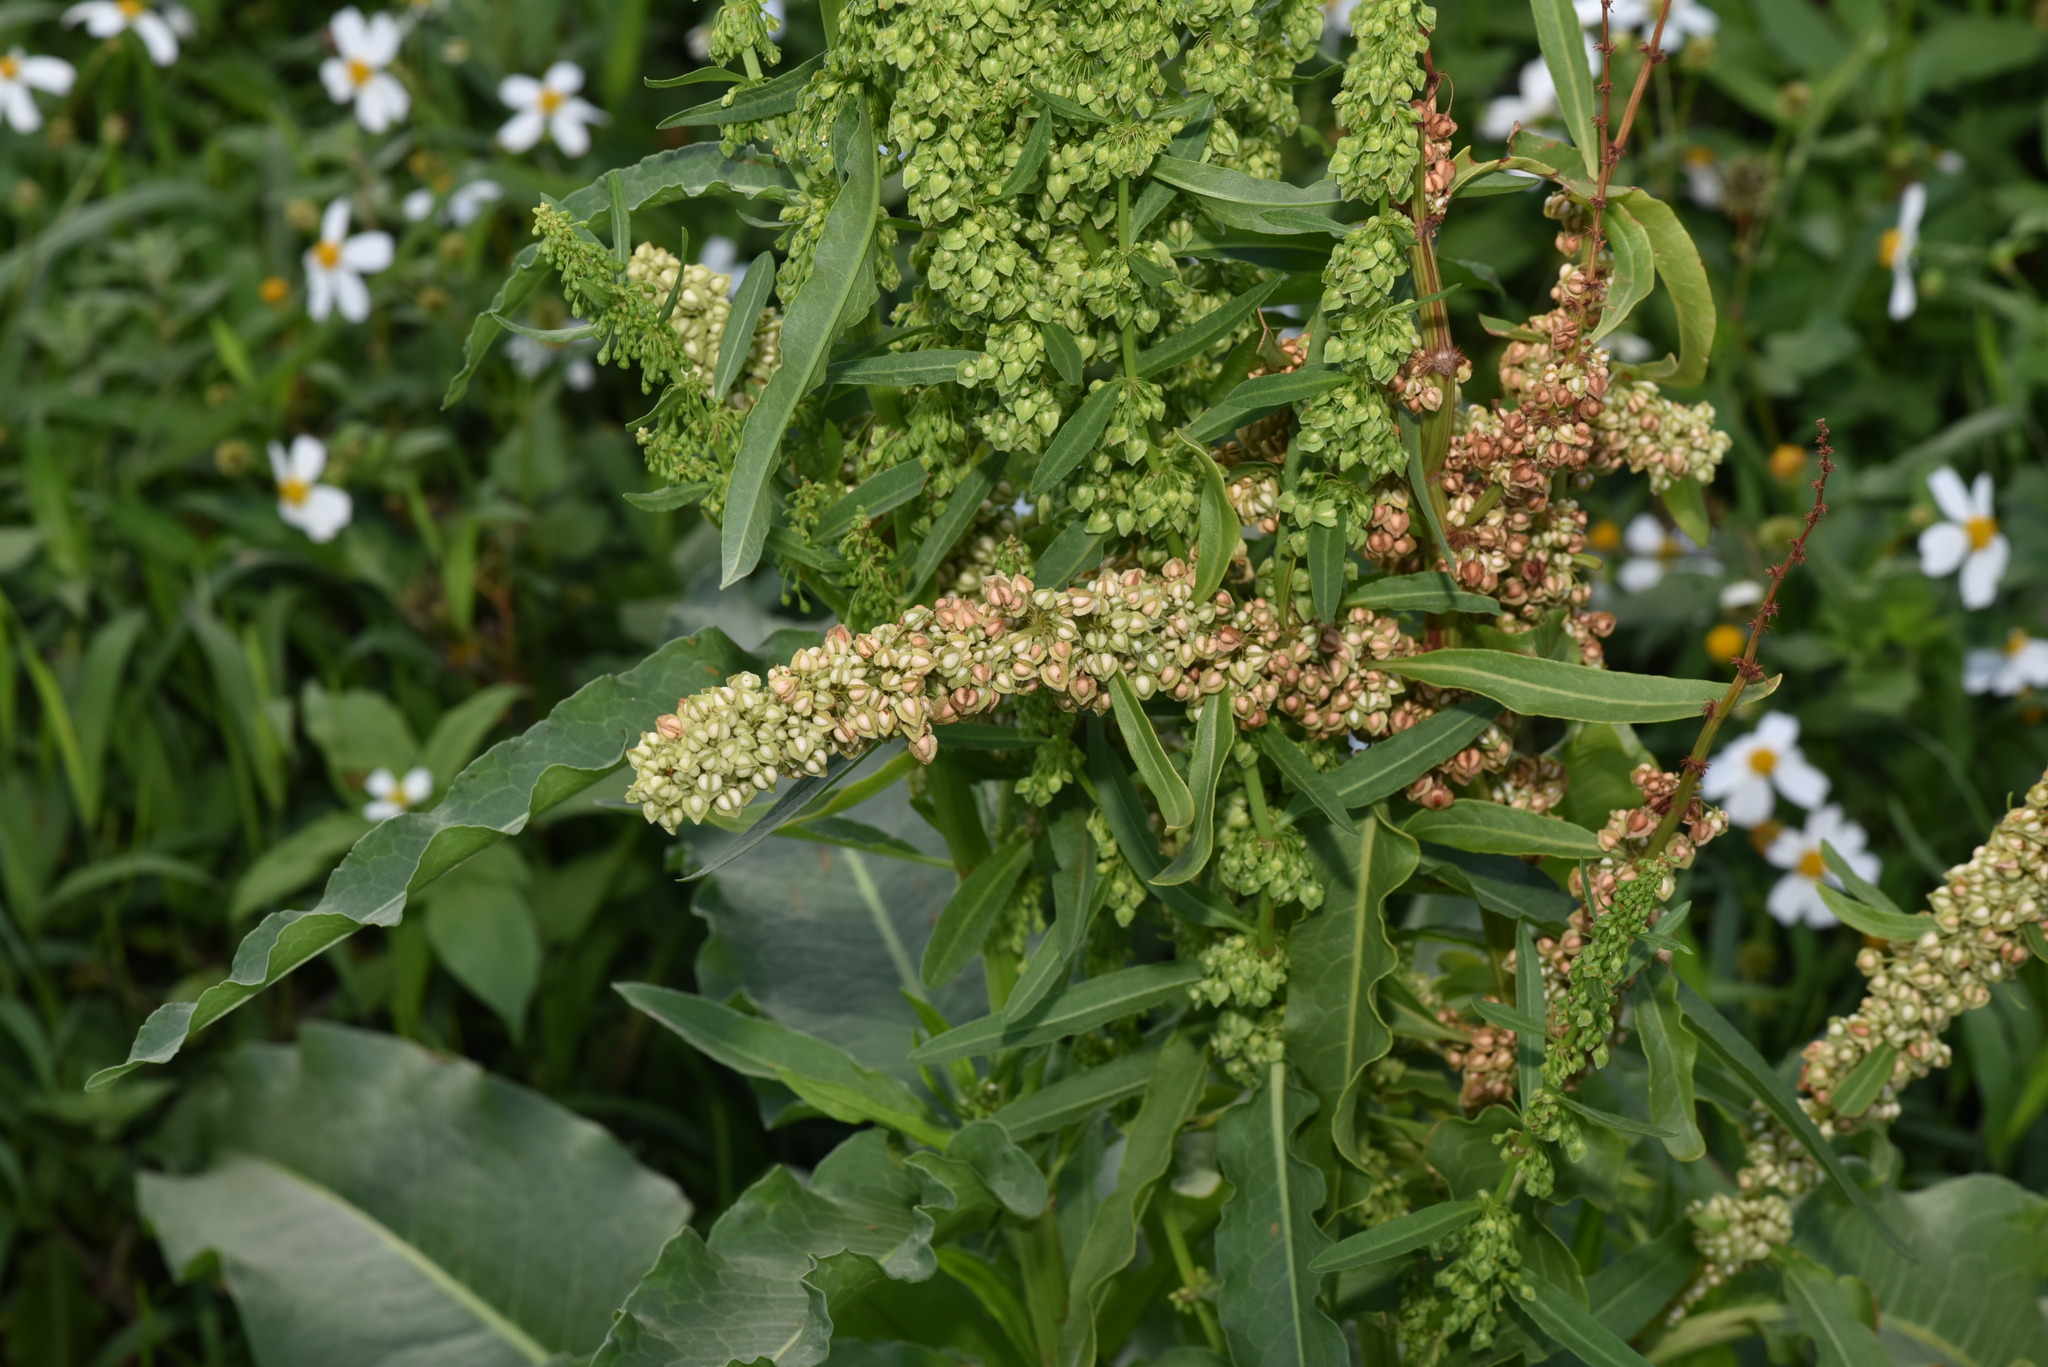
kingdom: Plantae
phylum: Tracheophyta
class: Magnoliopsida
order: Caryophyllales
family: Polygonaceae
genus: Rumex
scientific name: Rumex japonicus
